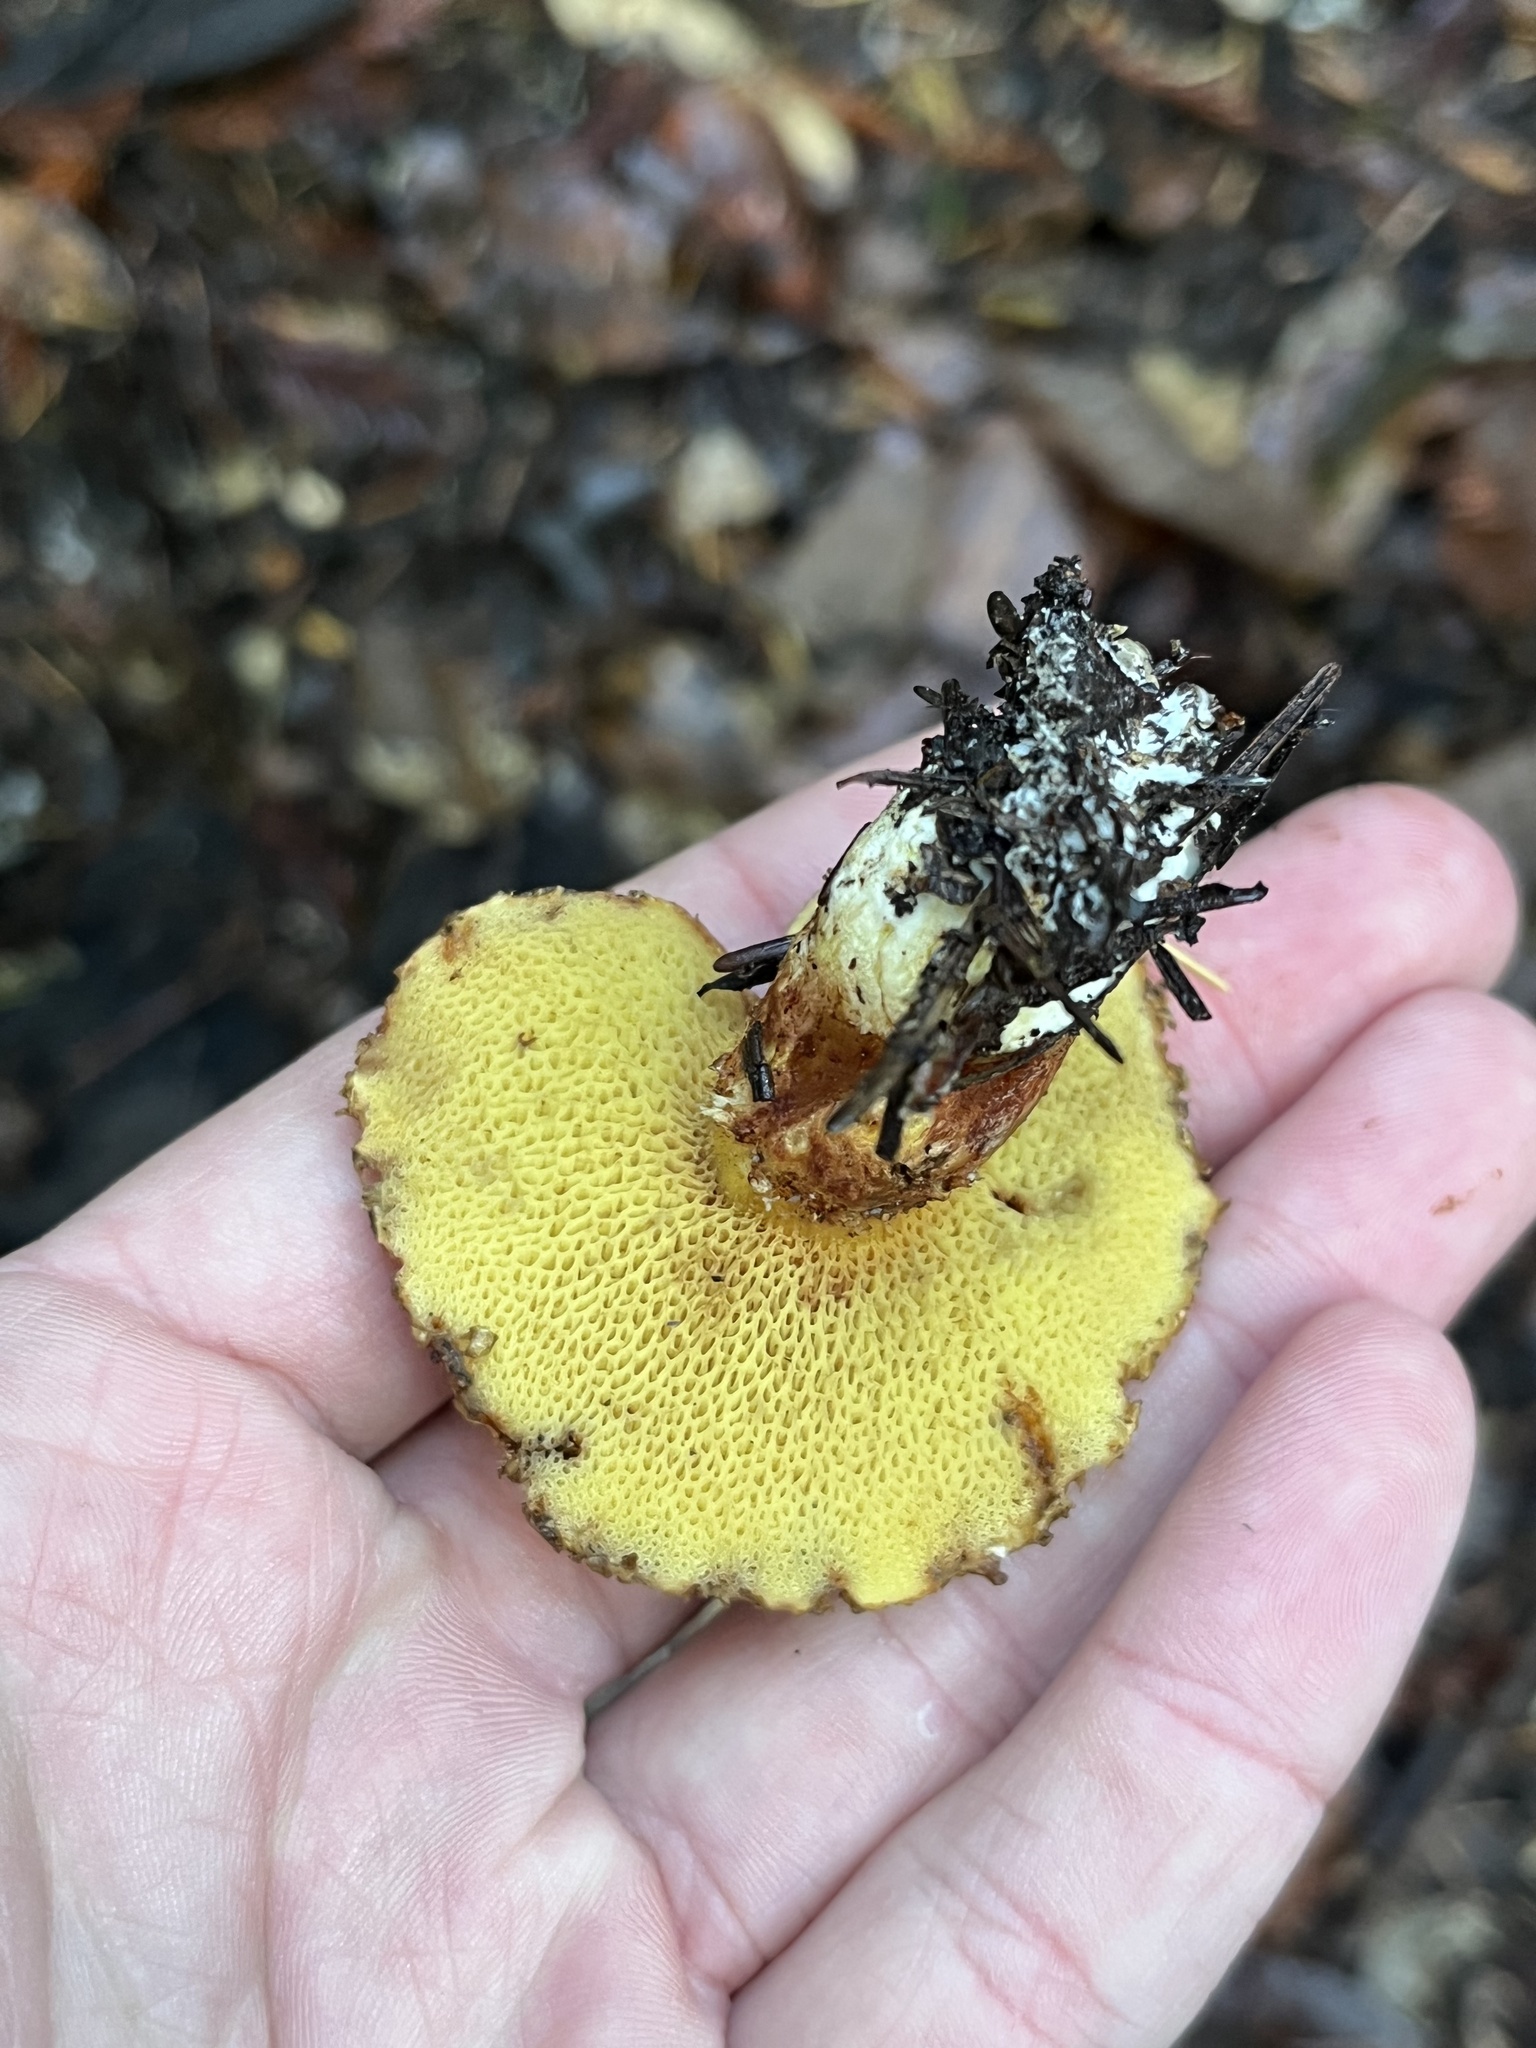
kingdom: Fungi
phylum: Basidiomycota
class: Agaricomycetes
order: Boletales
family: Suillaceae
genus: Suillus
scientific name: Suillus lakei
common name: Western painted suillus
